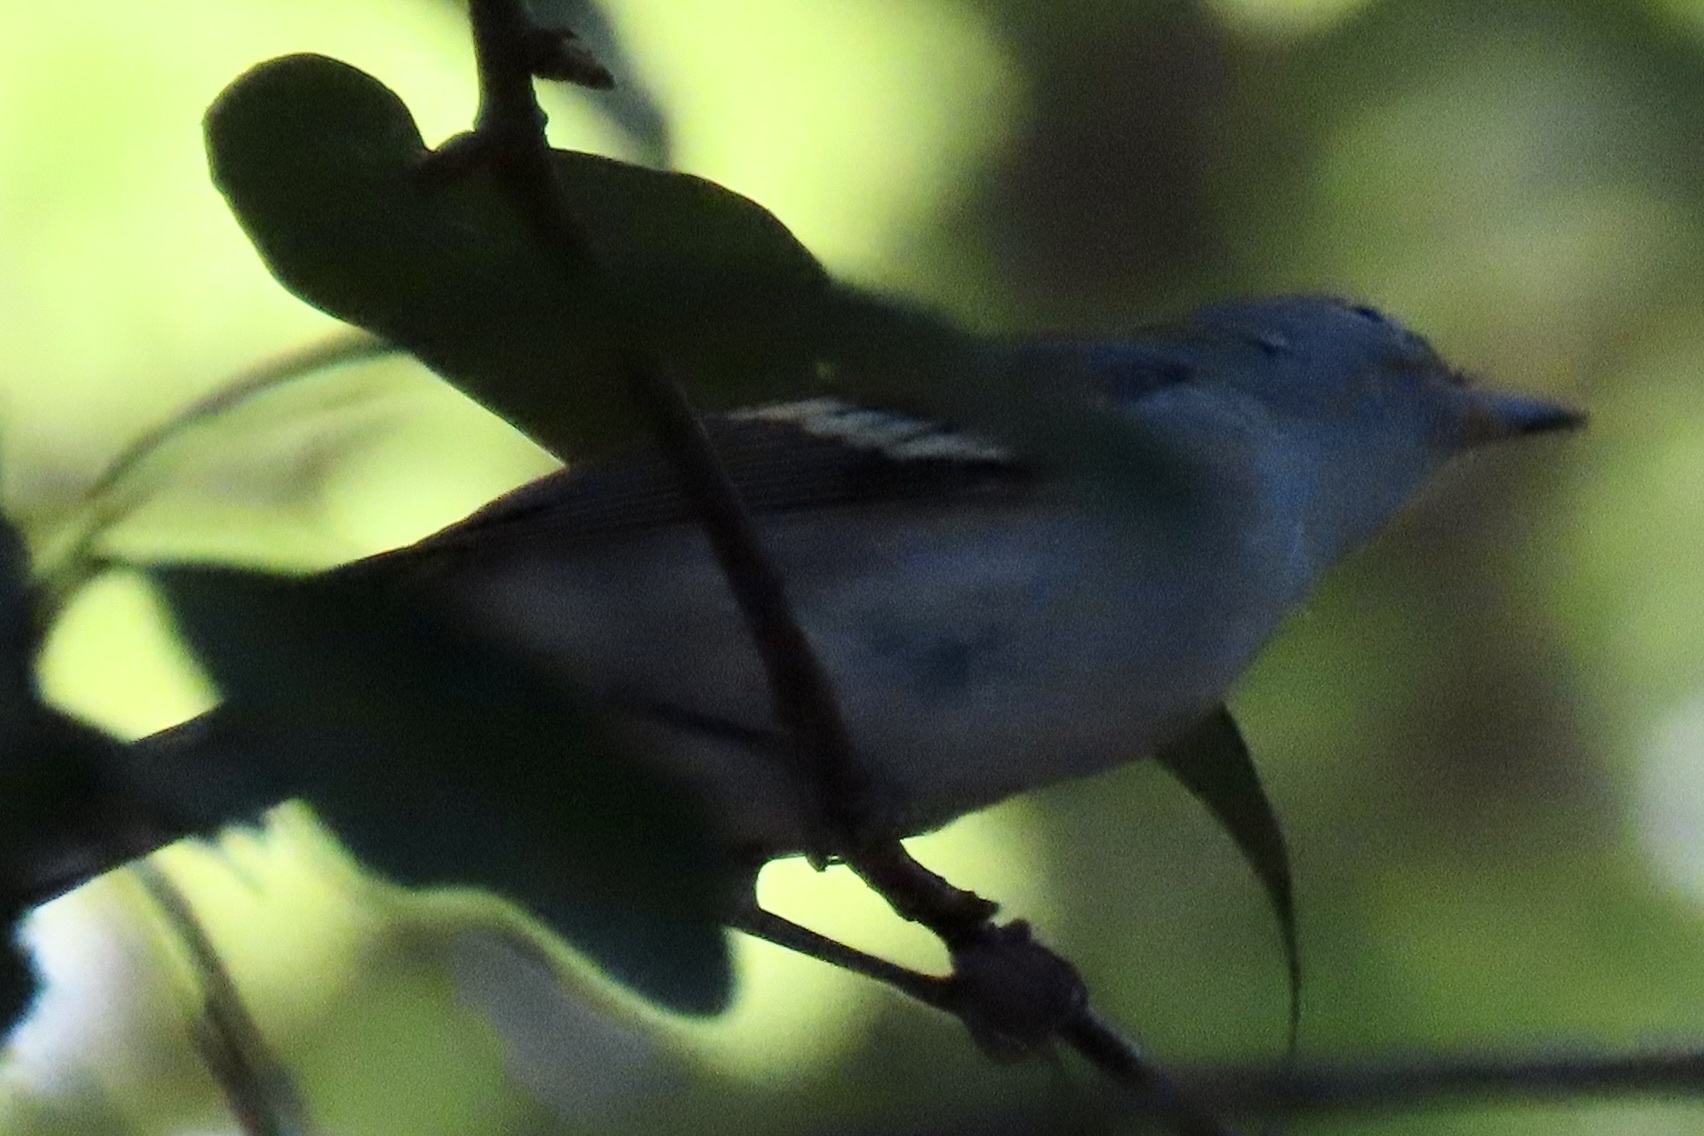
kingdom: Animalia
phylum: Chordata
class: Aves
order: Passeriformes
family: Parulidae
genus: Setophaga
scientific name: Setophaga pensylvanica
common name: Chestnut-sided warbler
